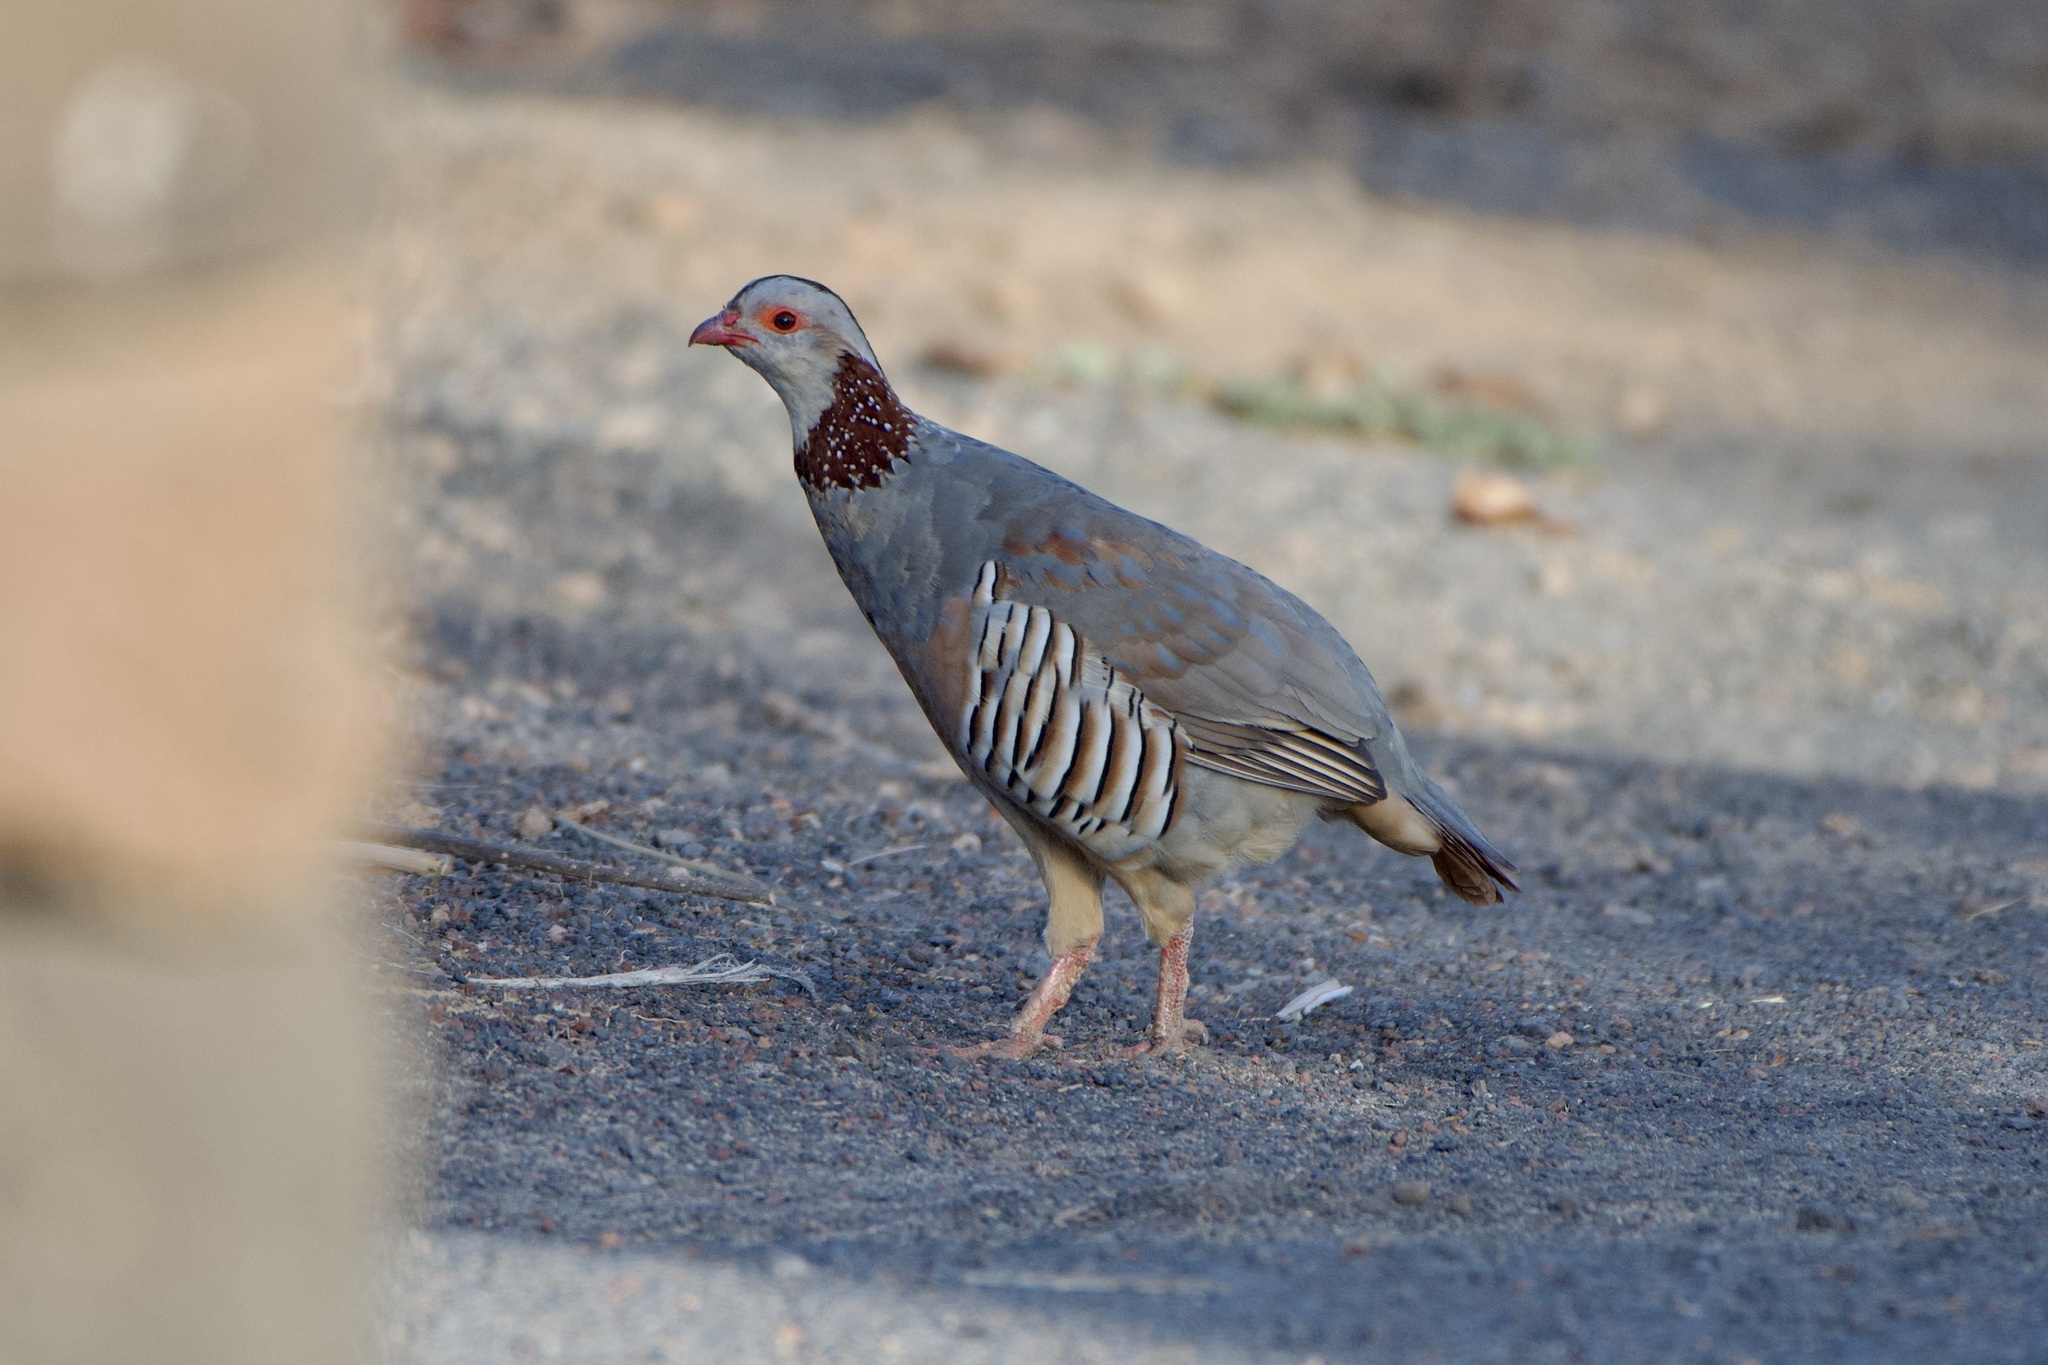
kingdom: Animalia
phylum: Chordata
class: Aves
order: Galliformes
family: Phasianidae
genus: Alectoris
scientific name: Alectoris barbara
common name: Barbary partridge
